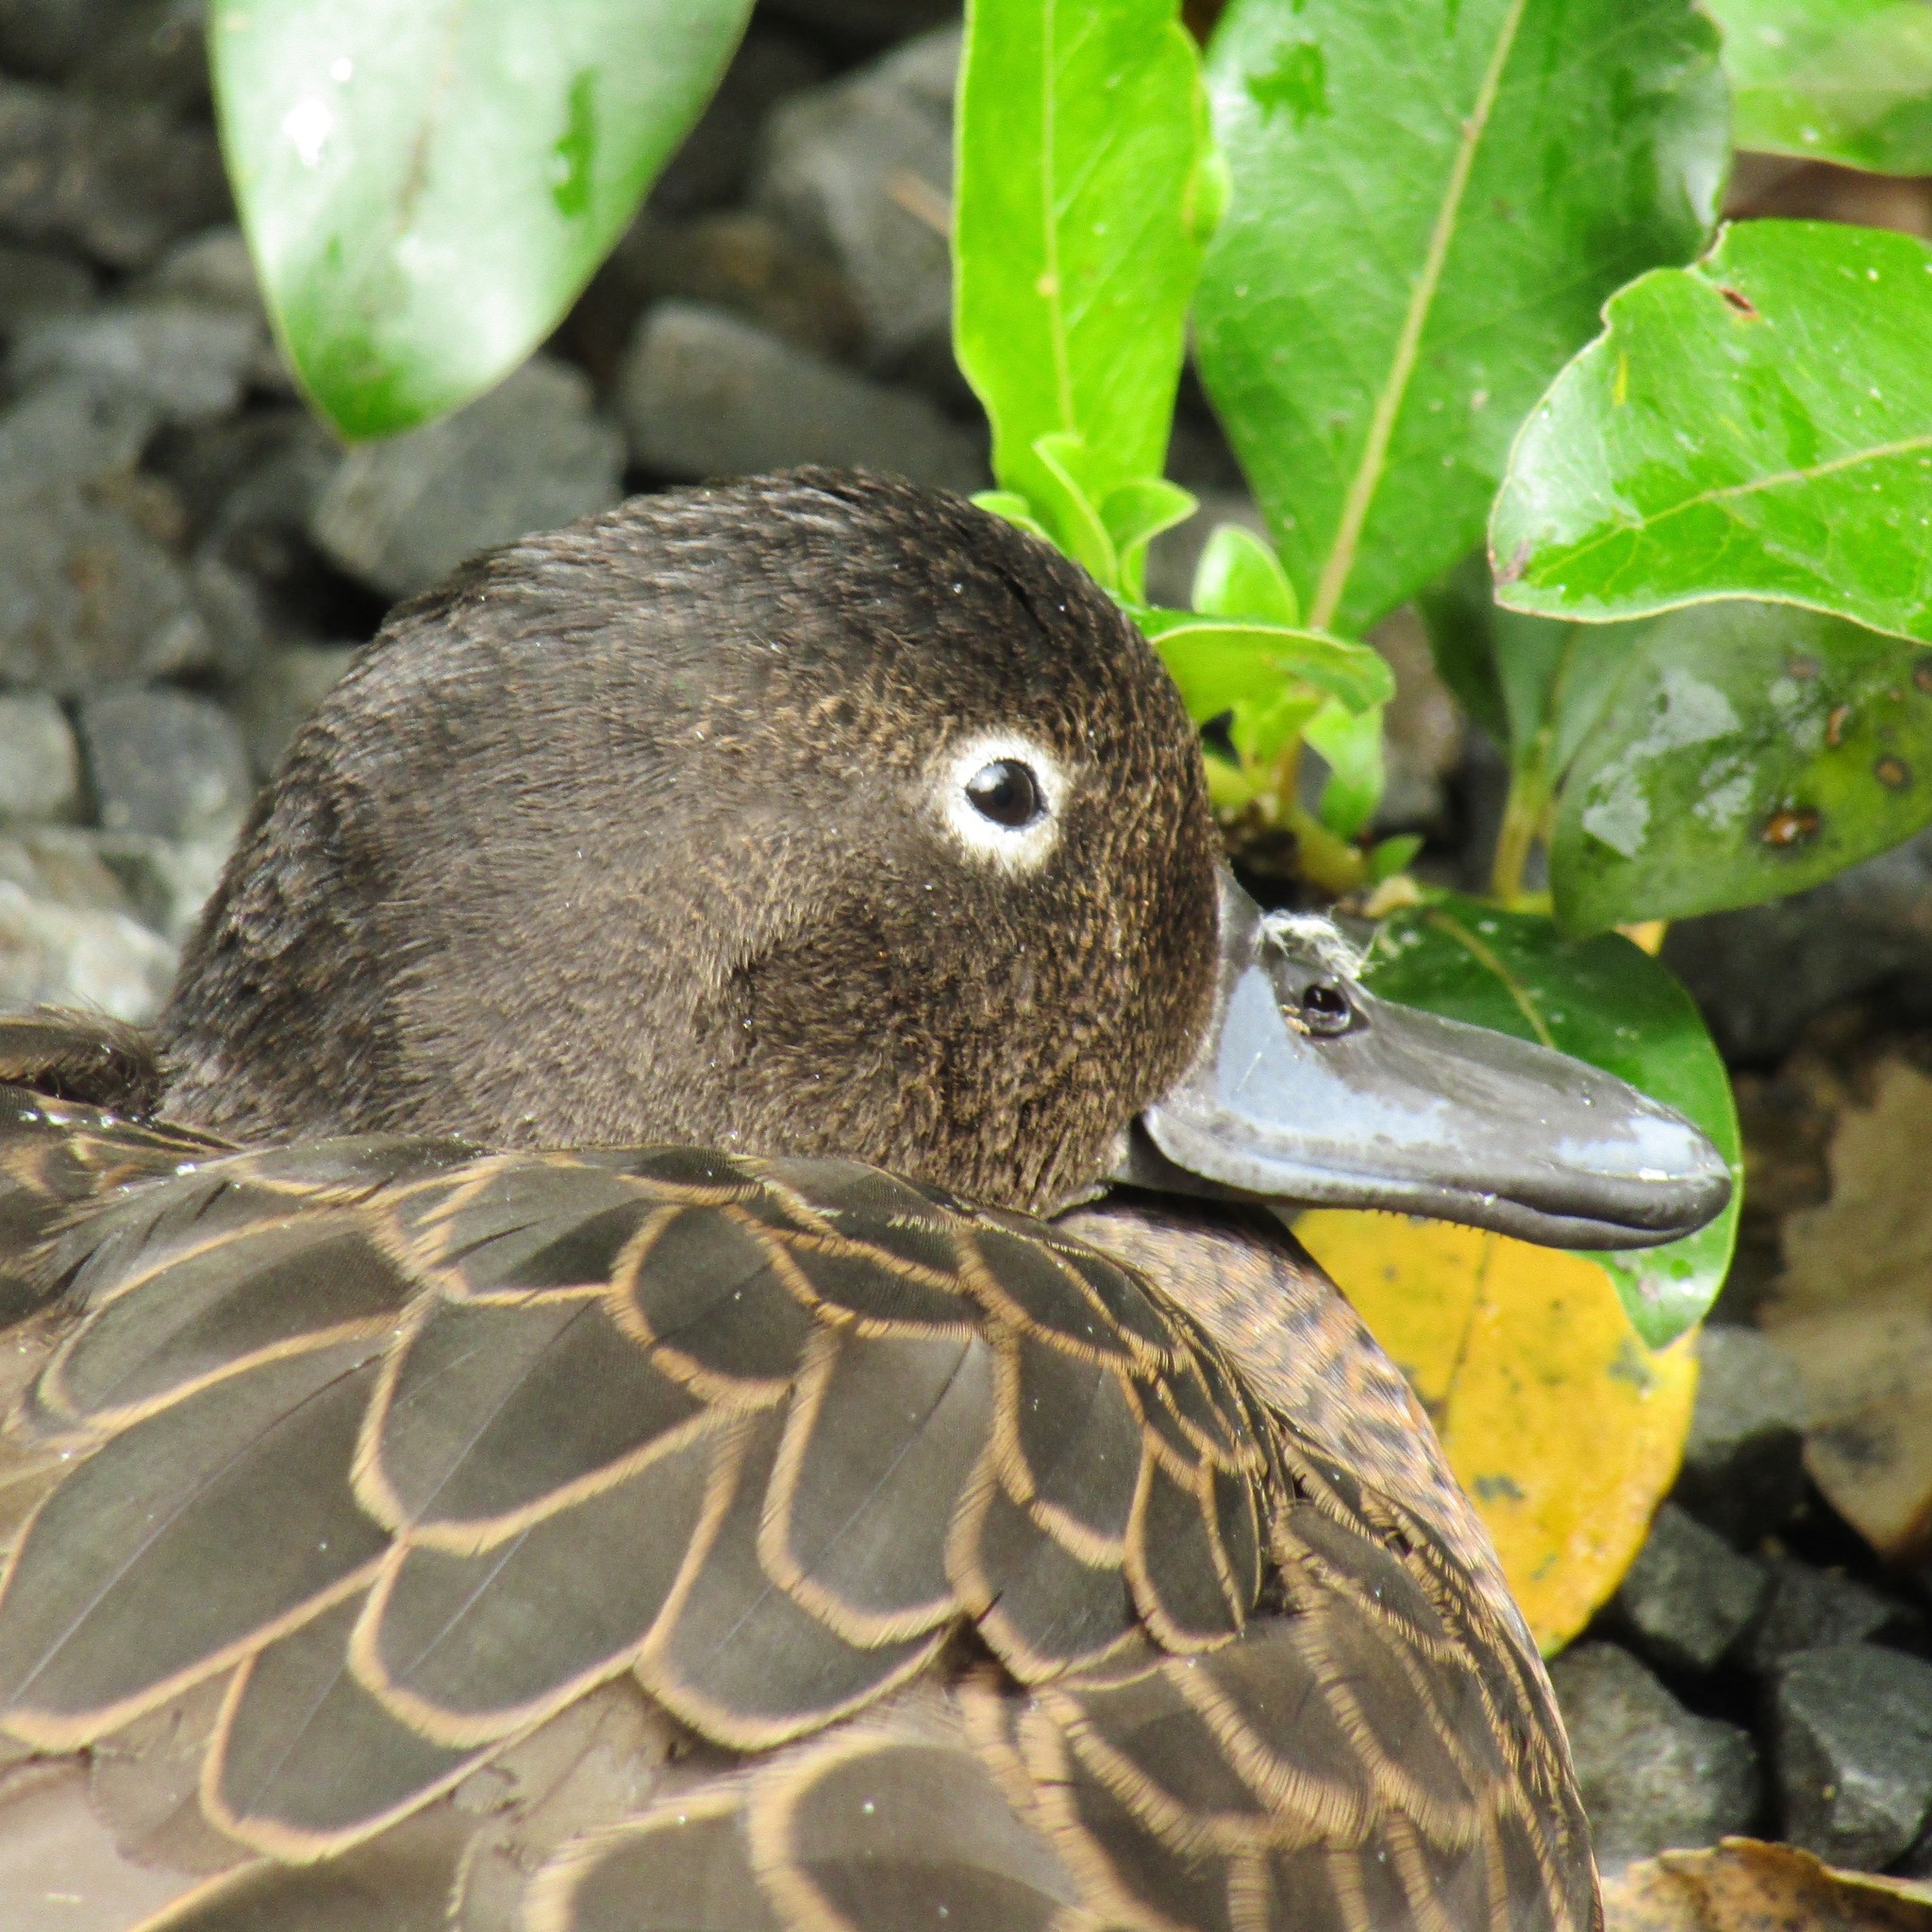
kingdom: Animalia
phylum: Chordata
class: Aves
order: Anseriformes
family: Anatidae
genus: Anas
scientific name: Anas chlorotis
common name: Brown teal
